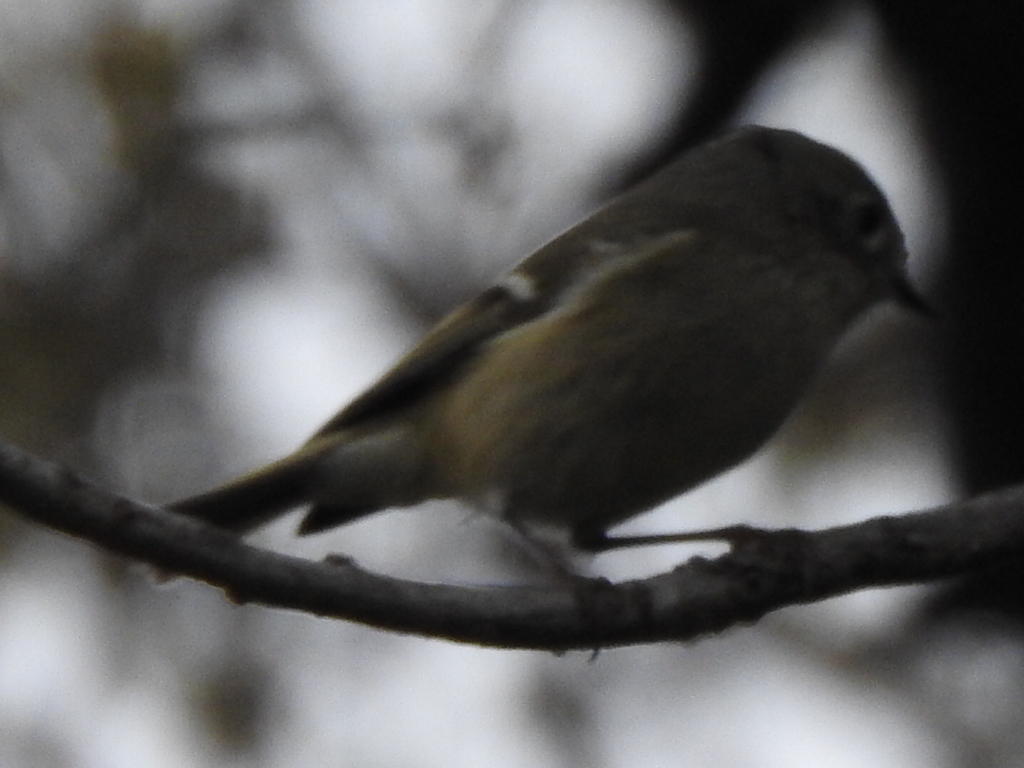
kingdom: Animalia
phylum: Chordata
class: Aves
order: Passeriformes
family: Regulidae
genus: Regulus
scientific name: Regulus calendula
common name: Ruby-crowned kinglet
